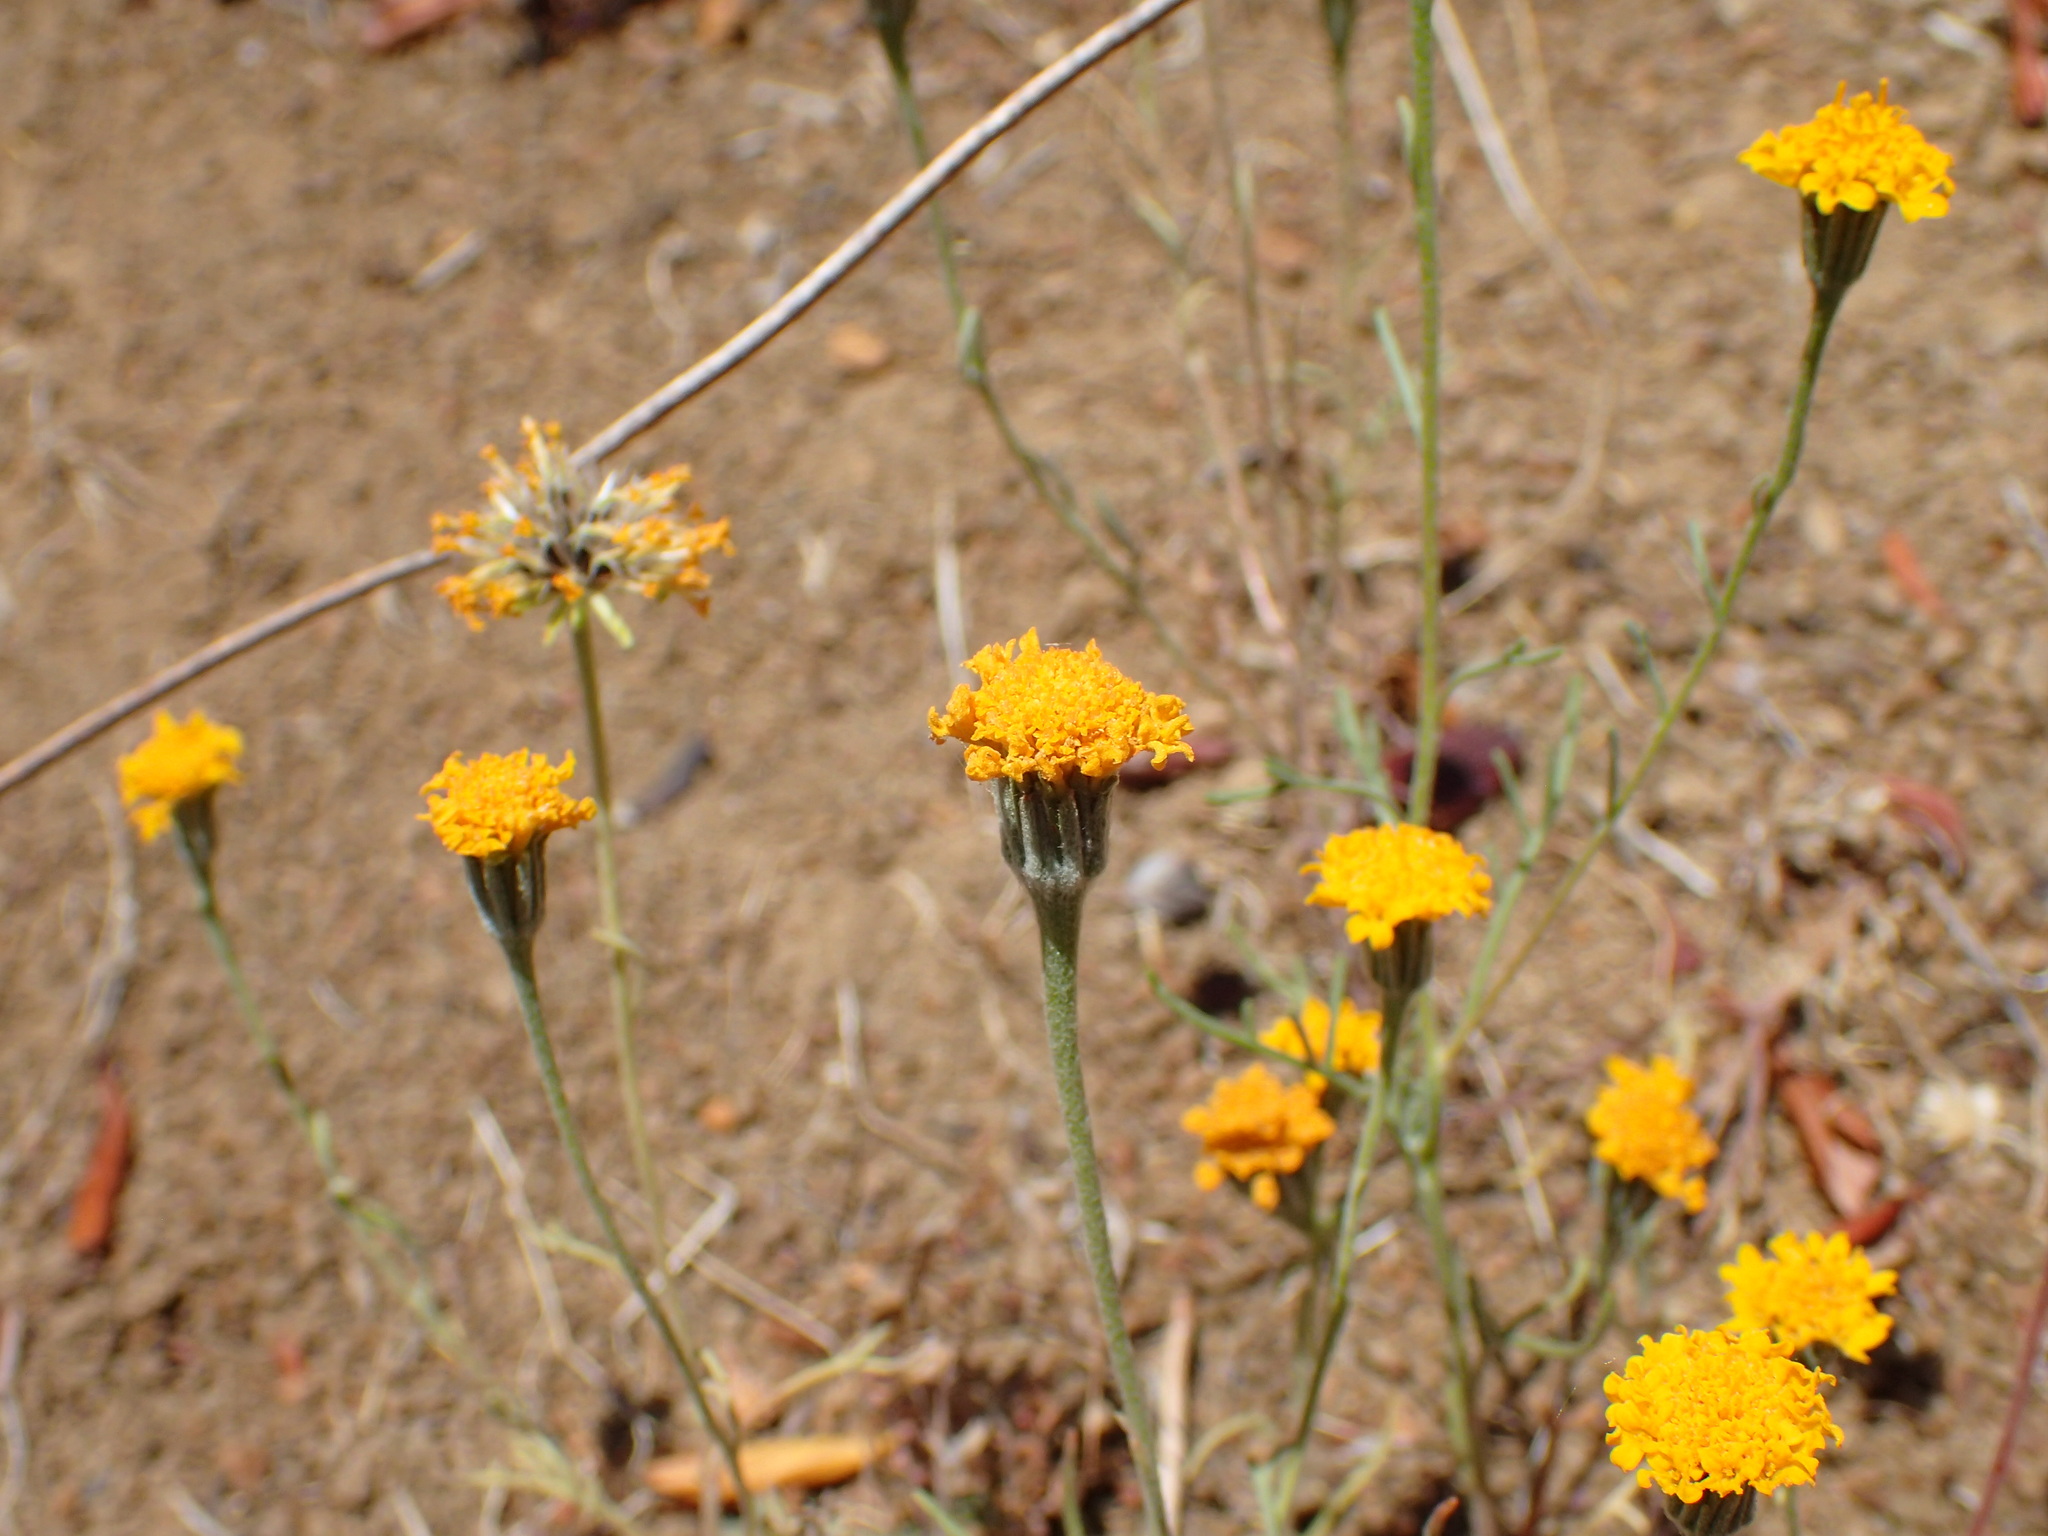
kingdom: Plantae
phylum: Tracheophyta
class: Magnoliopsida
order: Asterales
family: Asteraceae
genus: Chaenactis
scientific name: Chaenactis glabriuscula
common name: Yellow pincushion
